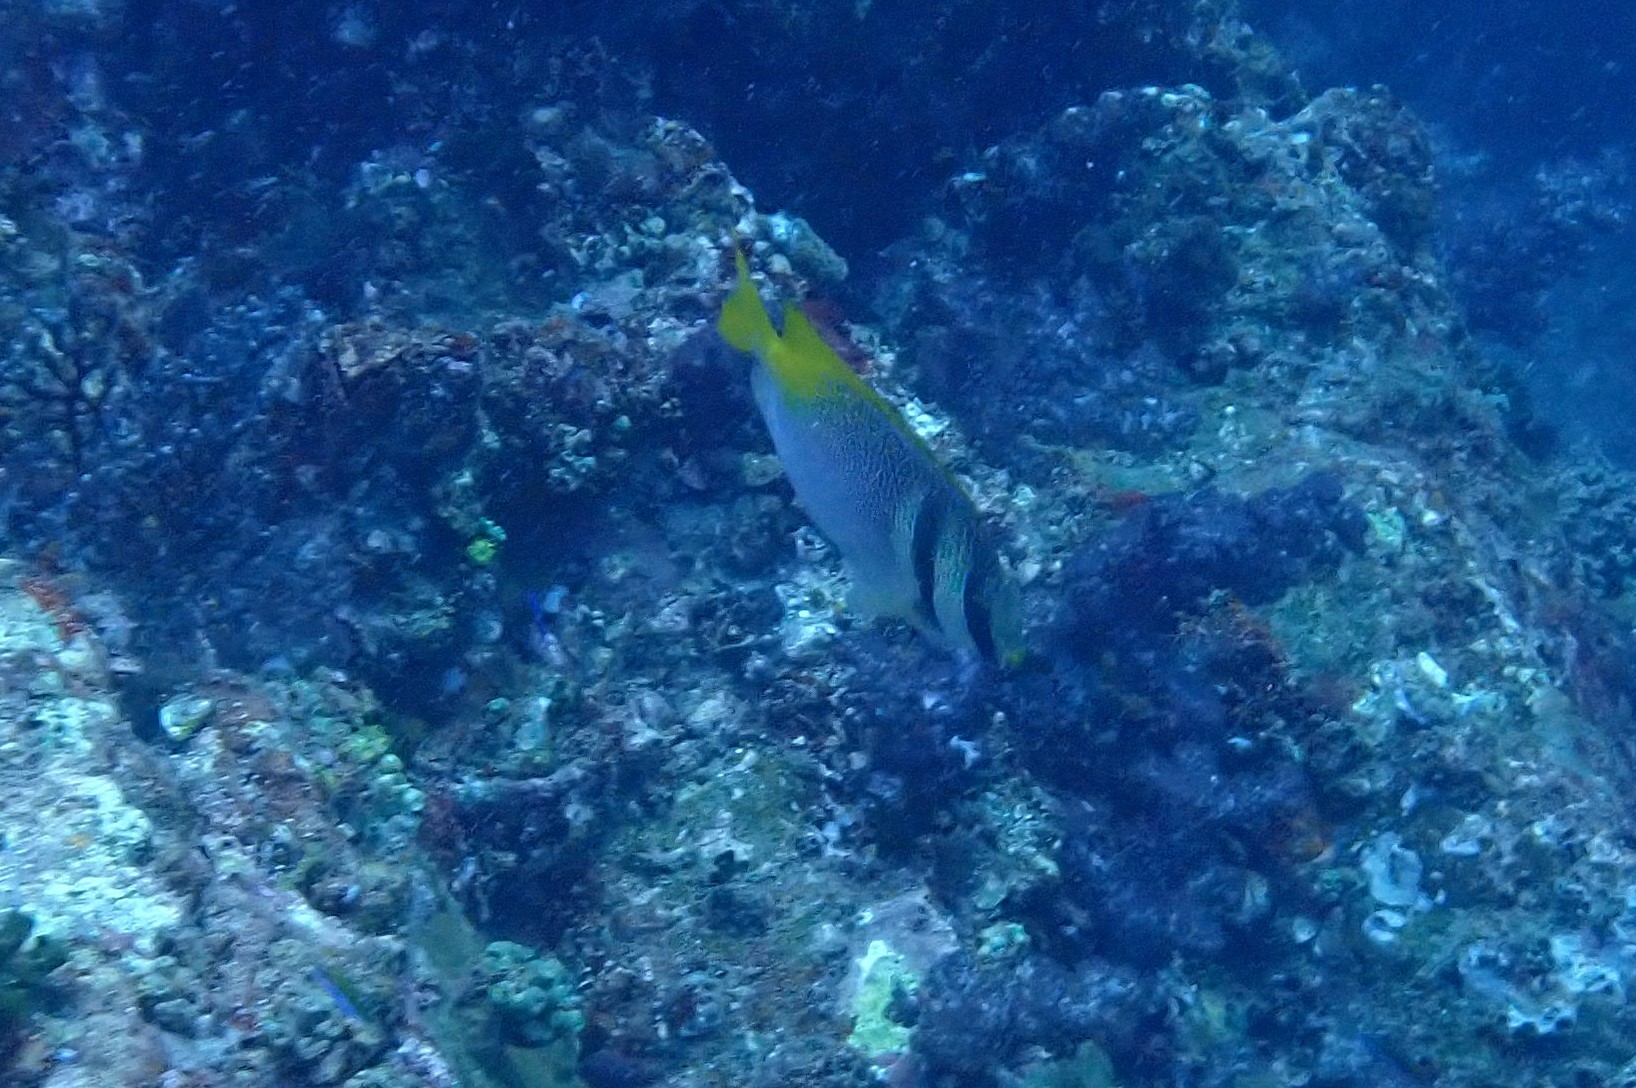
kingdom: Animalia
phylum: Chordata
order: Perciformes
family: Siganidae
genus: Siganus
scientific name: Siganus virgatus
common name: Barhead spinefoot
